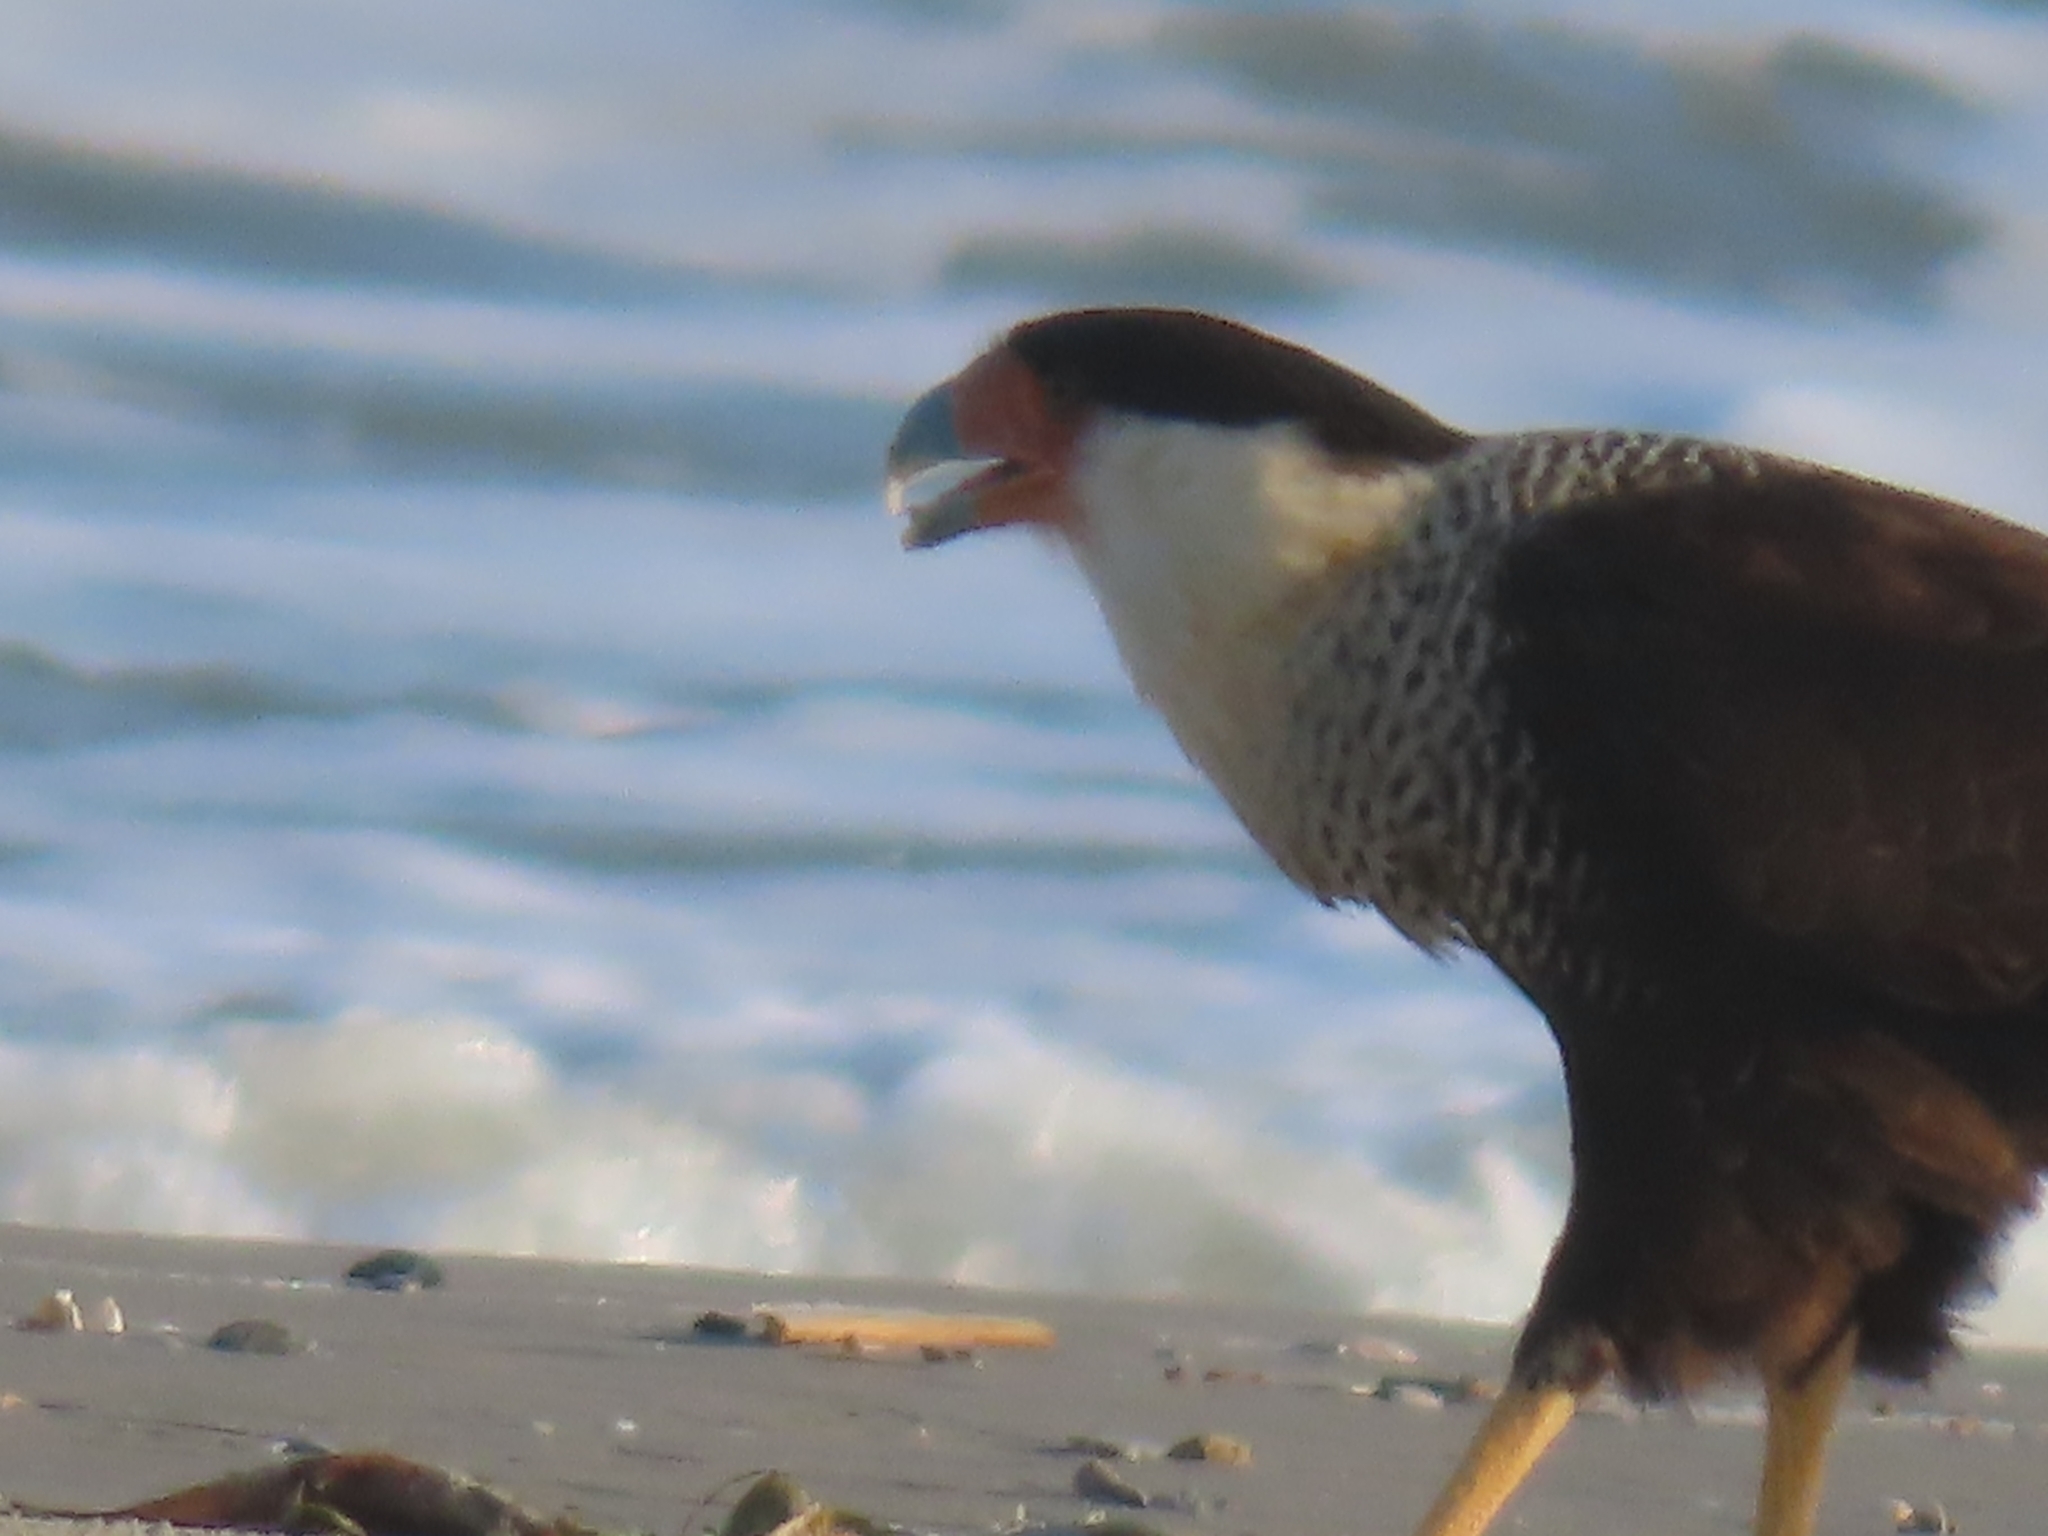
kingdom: Animalia
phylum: Chordata
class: Aves
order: Falconiformes
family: Falconidae
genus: Caracara
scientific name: Caracara plancus
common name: Southern caracara
